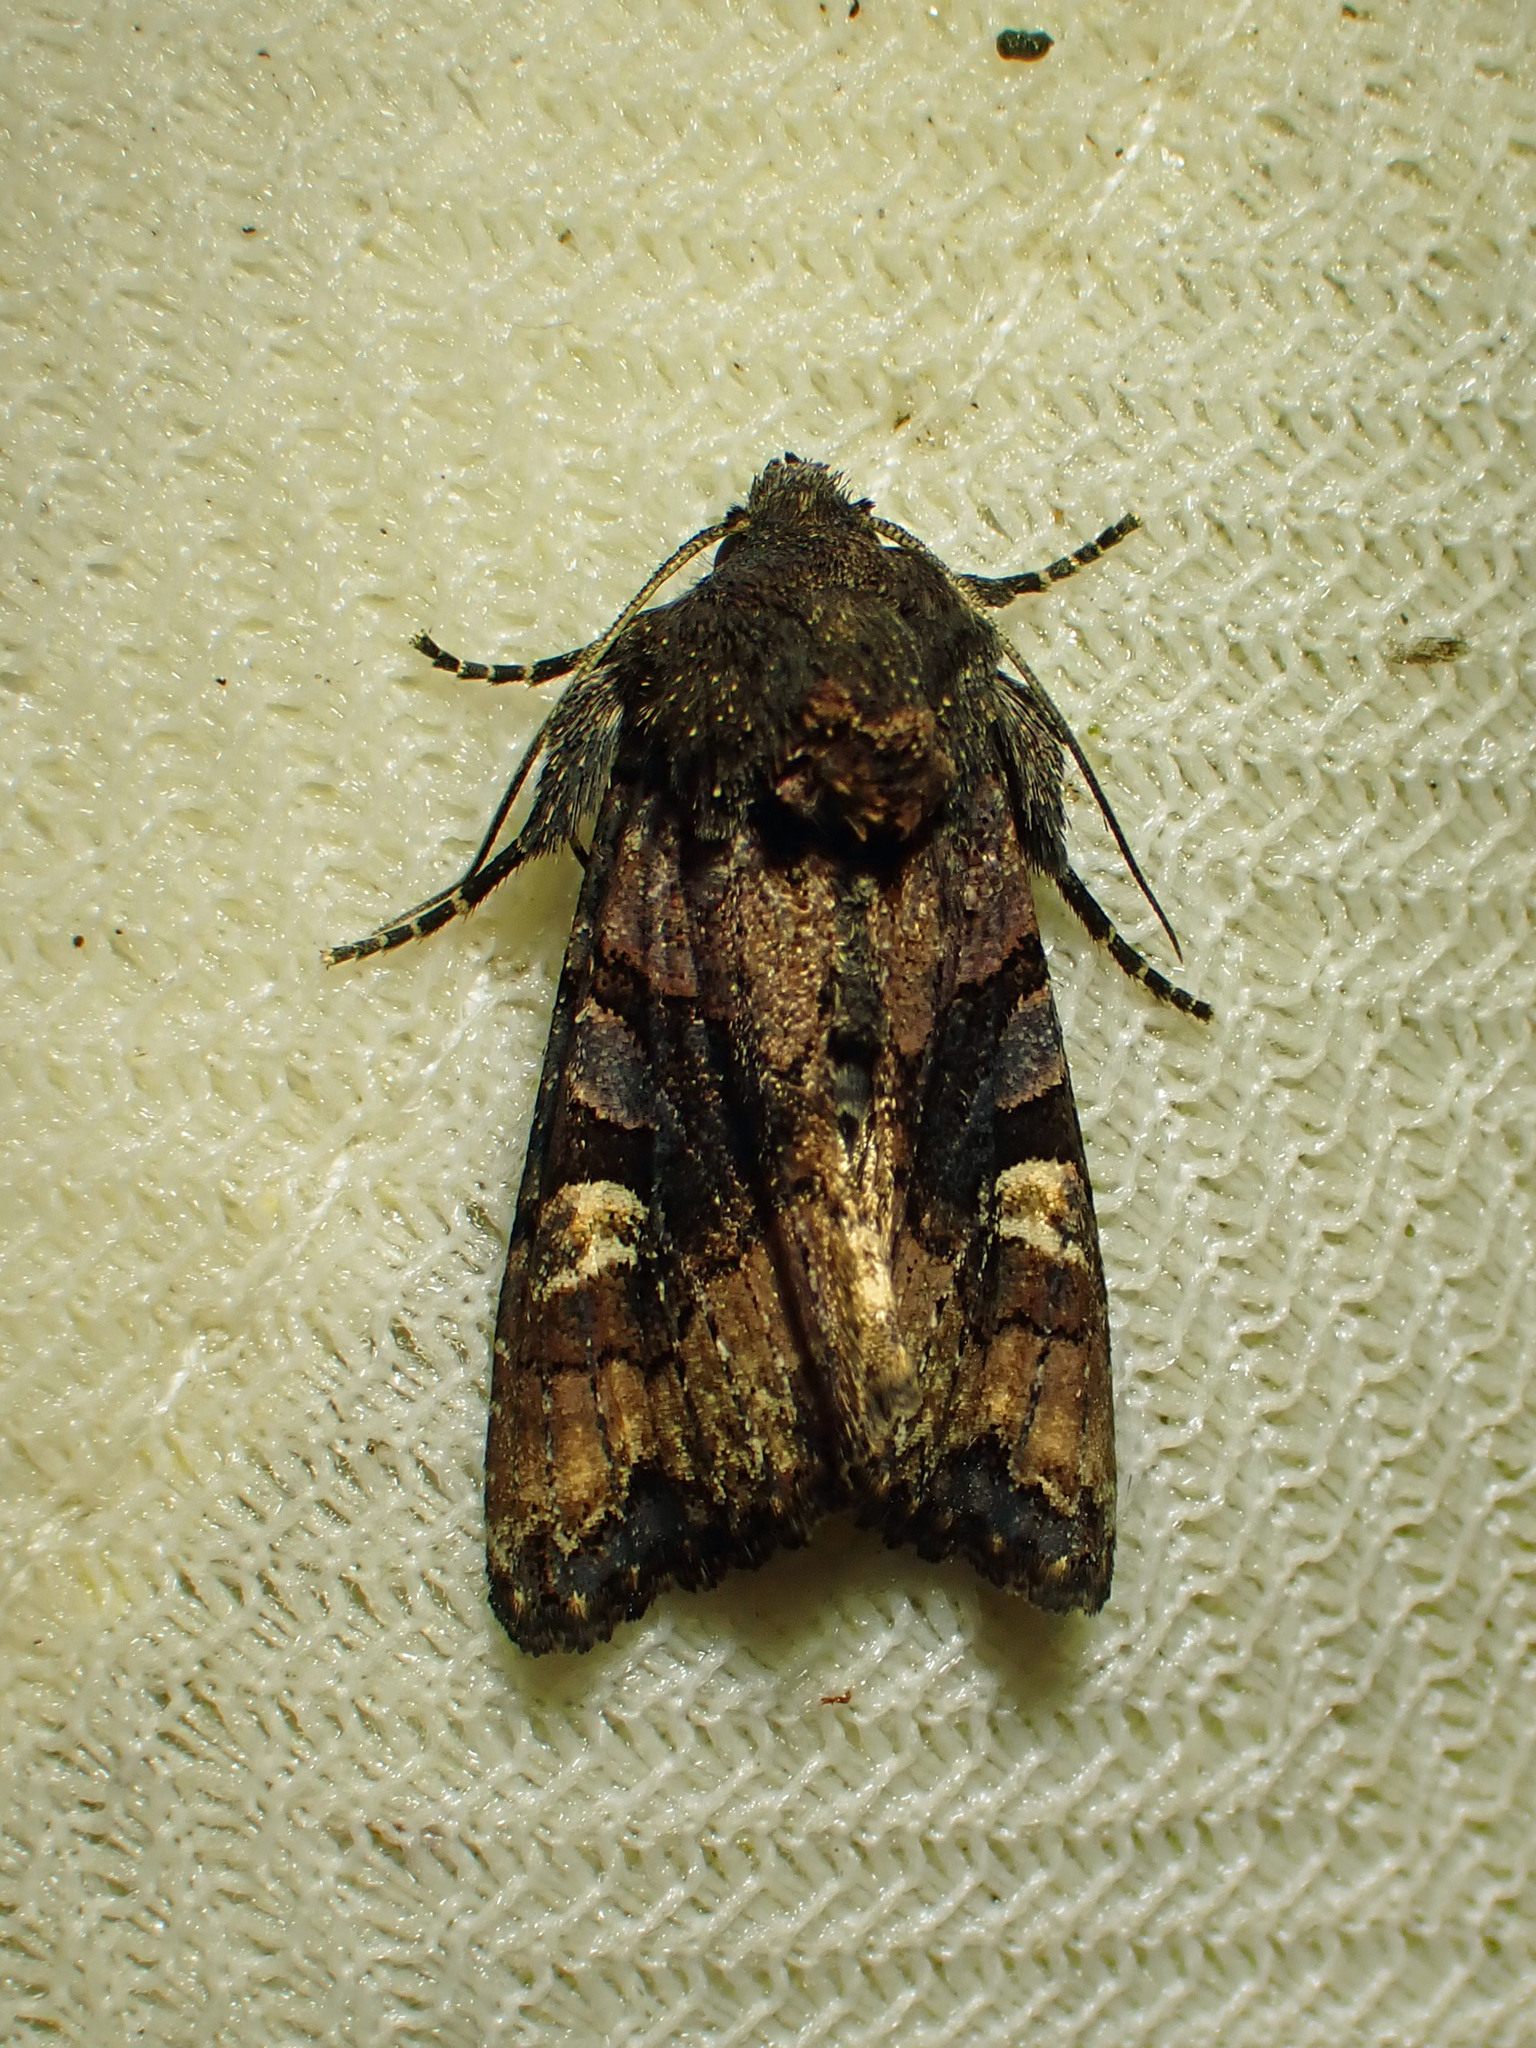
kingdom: Animalia
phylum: Arthropoda
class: Insecta
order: Lepidoptera
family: Noctuidae
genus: Euplexia
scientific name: Euplexia benesimilis
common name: American angle shades
